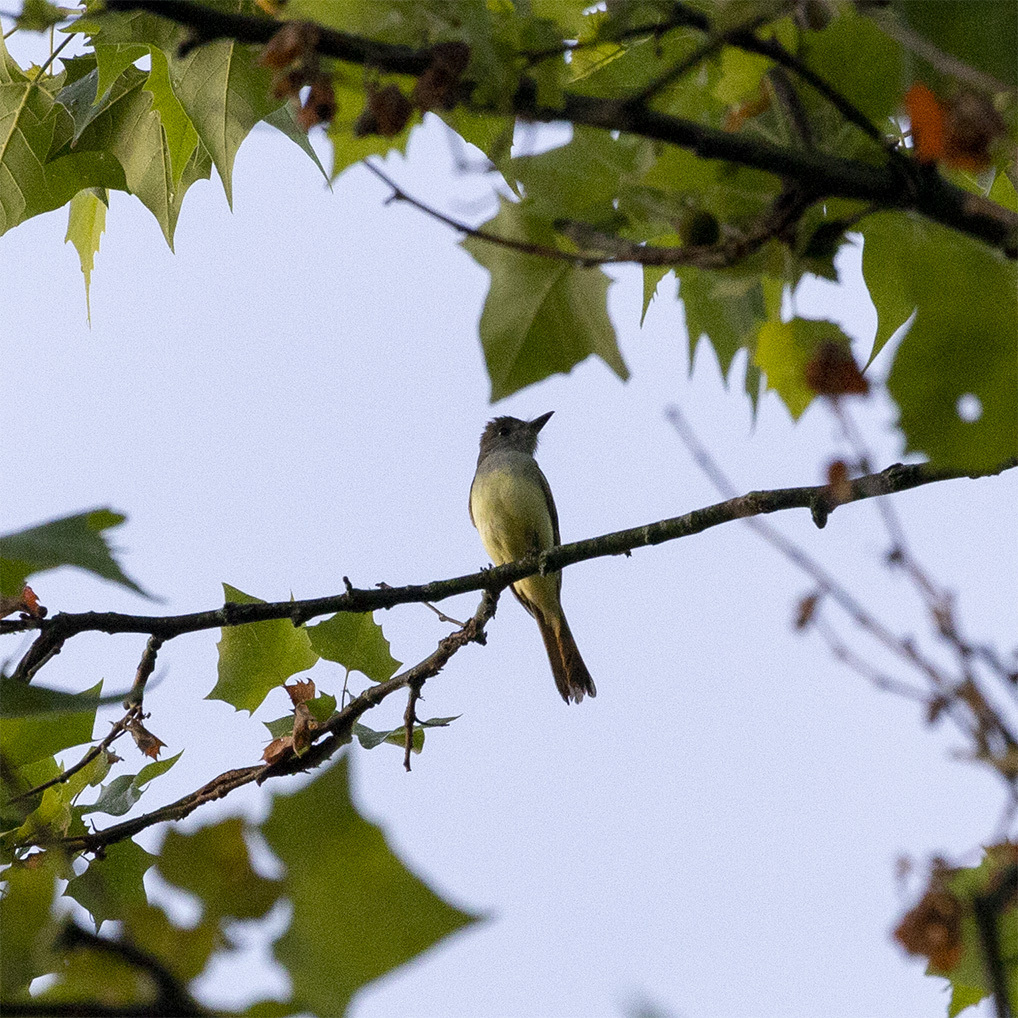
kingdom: Animalia
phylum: Chordata
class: Aves
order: Passeriformes
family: Tyrannidae
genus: Myiarchus
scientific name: Myiarchus crinitus
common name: Great crested flycatcher
